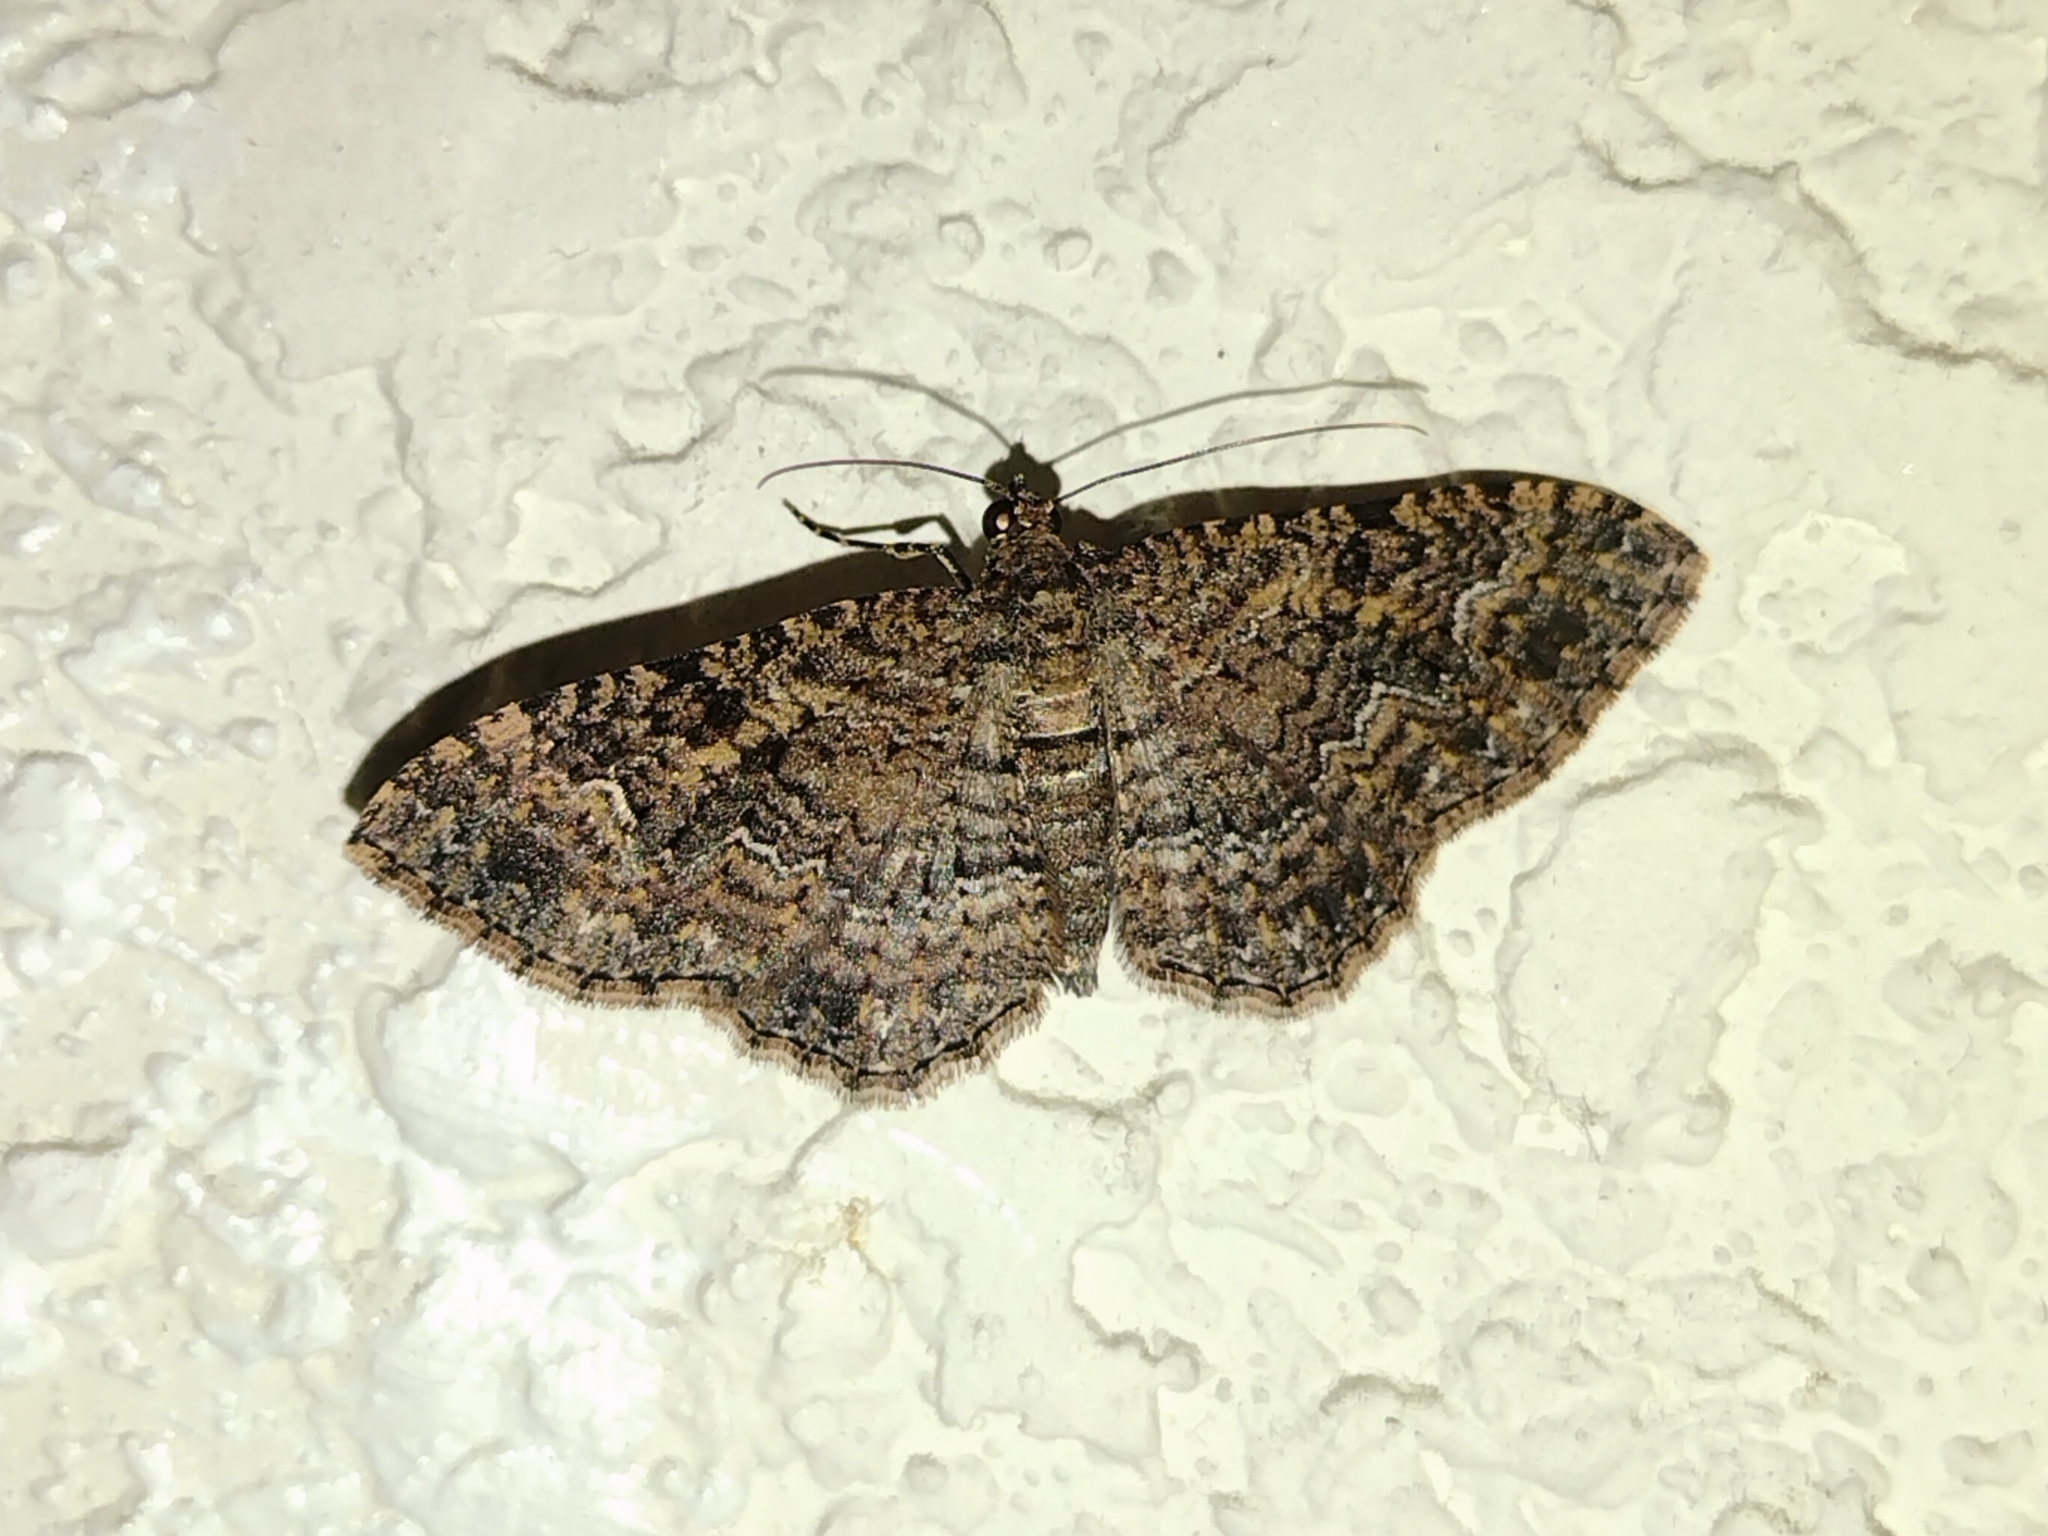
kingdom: Animalia
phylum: Arthropoda
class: Insecta
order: Lepidoptera
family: Geometridae
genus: Disclisioprocta
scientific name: Disclisioprocta stellata
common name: Somber carpet
